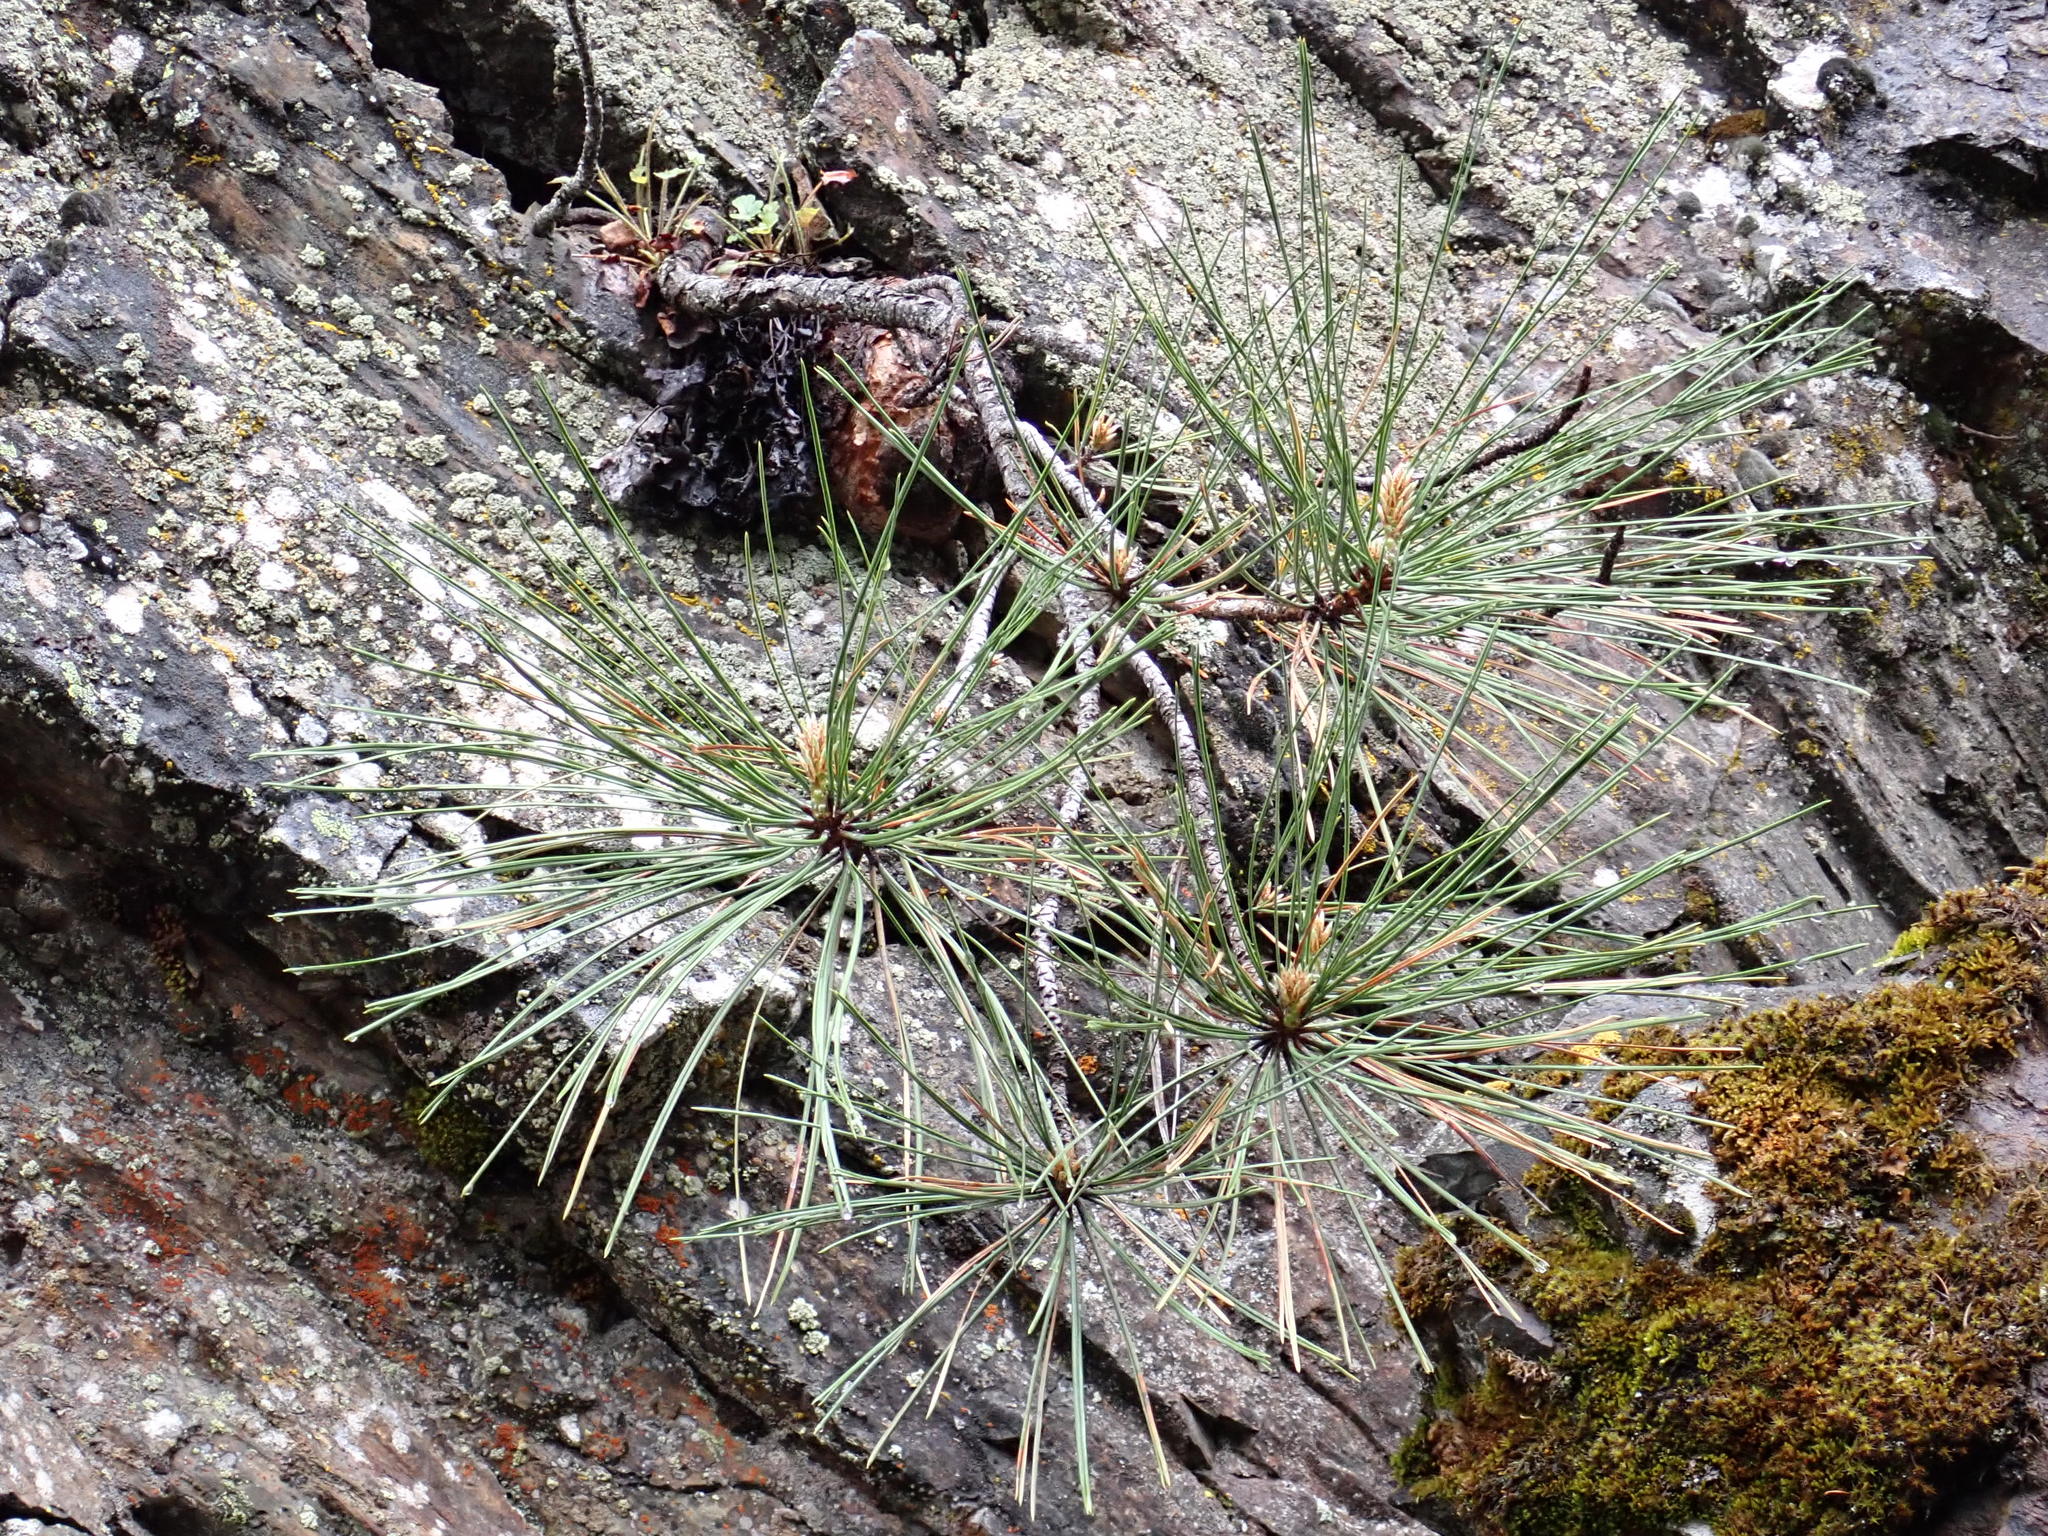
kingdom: Plantae
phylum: Tracheophyta
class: Pinopsida
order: Pinales
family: Pinaceae
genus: Pinus
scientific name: Pinus ponderosa
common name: Western yellow-pine
